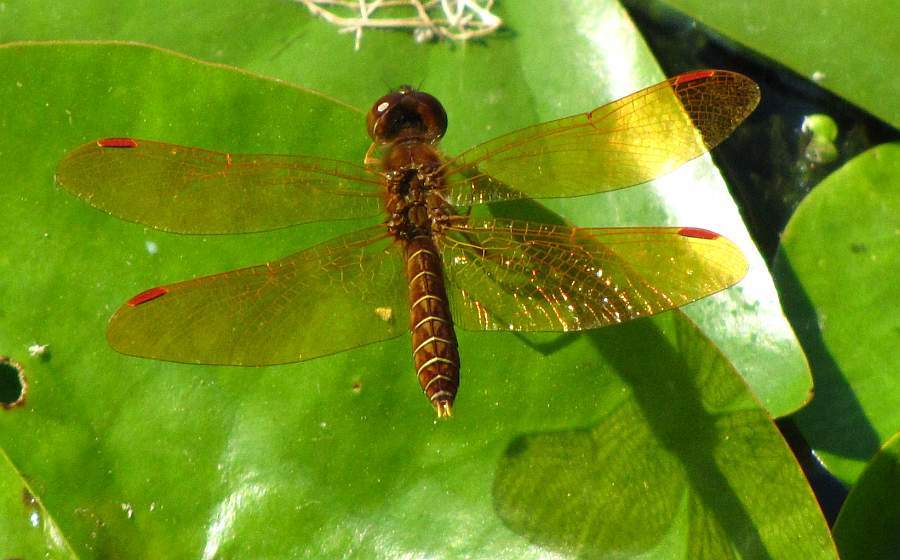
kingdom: Animalia
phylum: Arthropoda
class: Insecta
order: Odonata
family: Libellulidae
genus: Perithemis
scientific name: Perithemis tenera
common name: Eastern amberwing
